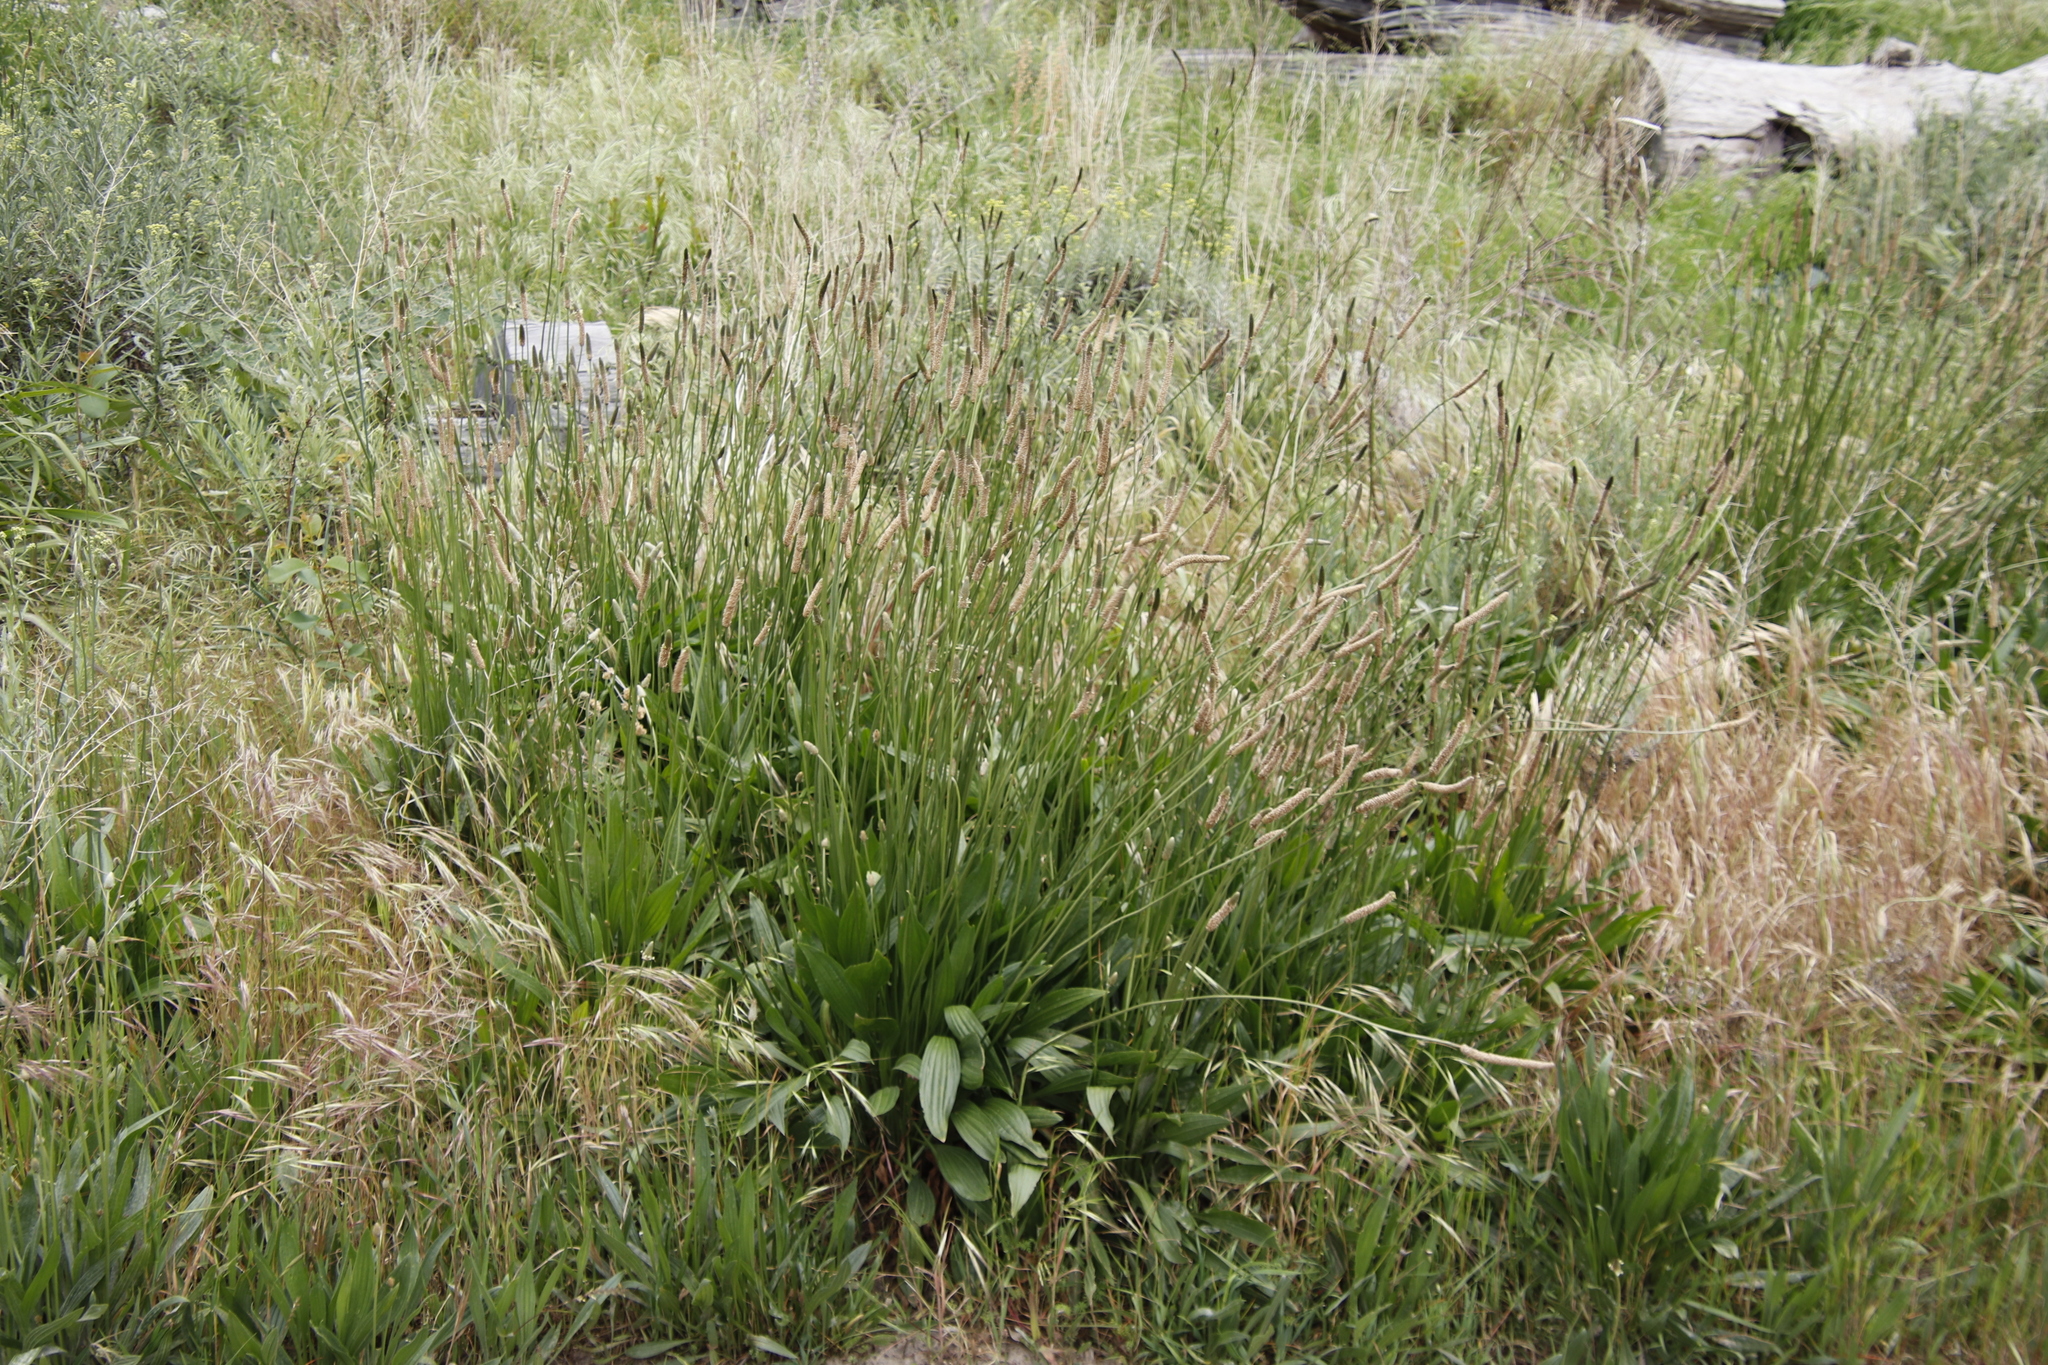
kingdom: Plantae
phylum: Tracheophyta
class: Magnoliopsida
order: Lamiales
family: Plantaginaceae
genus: Plantago
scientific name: Plantago lanceolata
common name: Ribwort plantain
